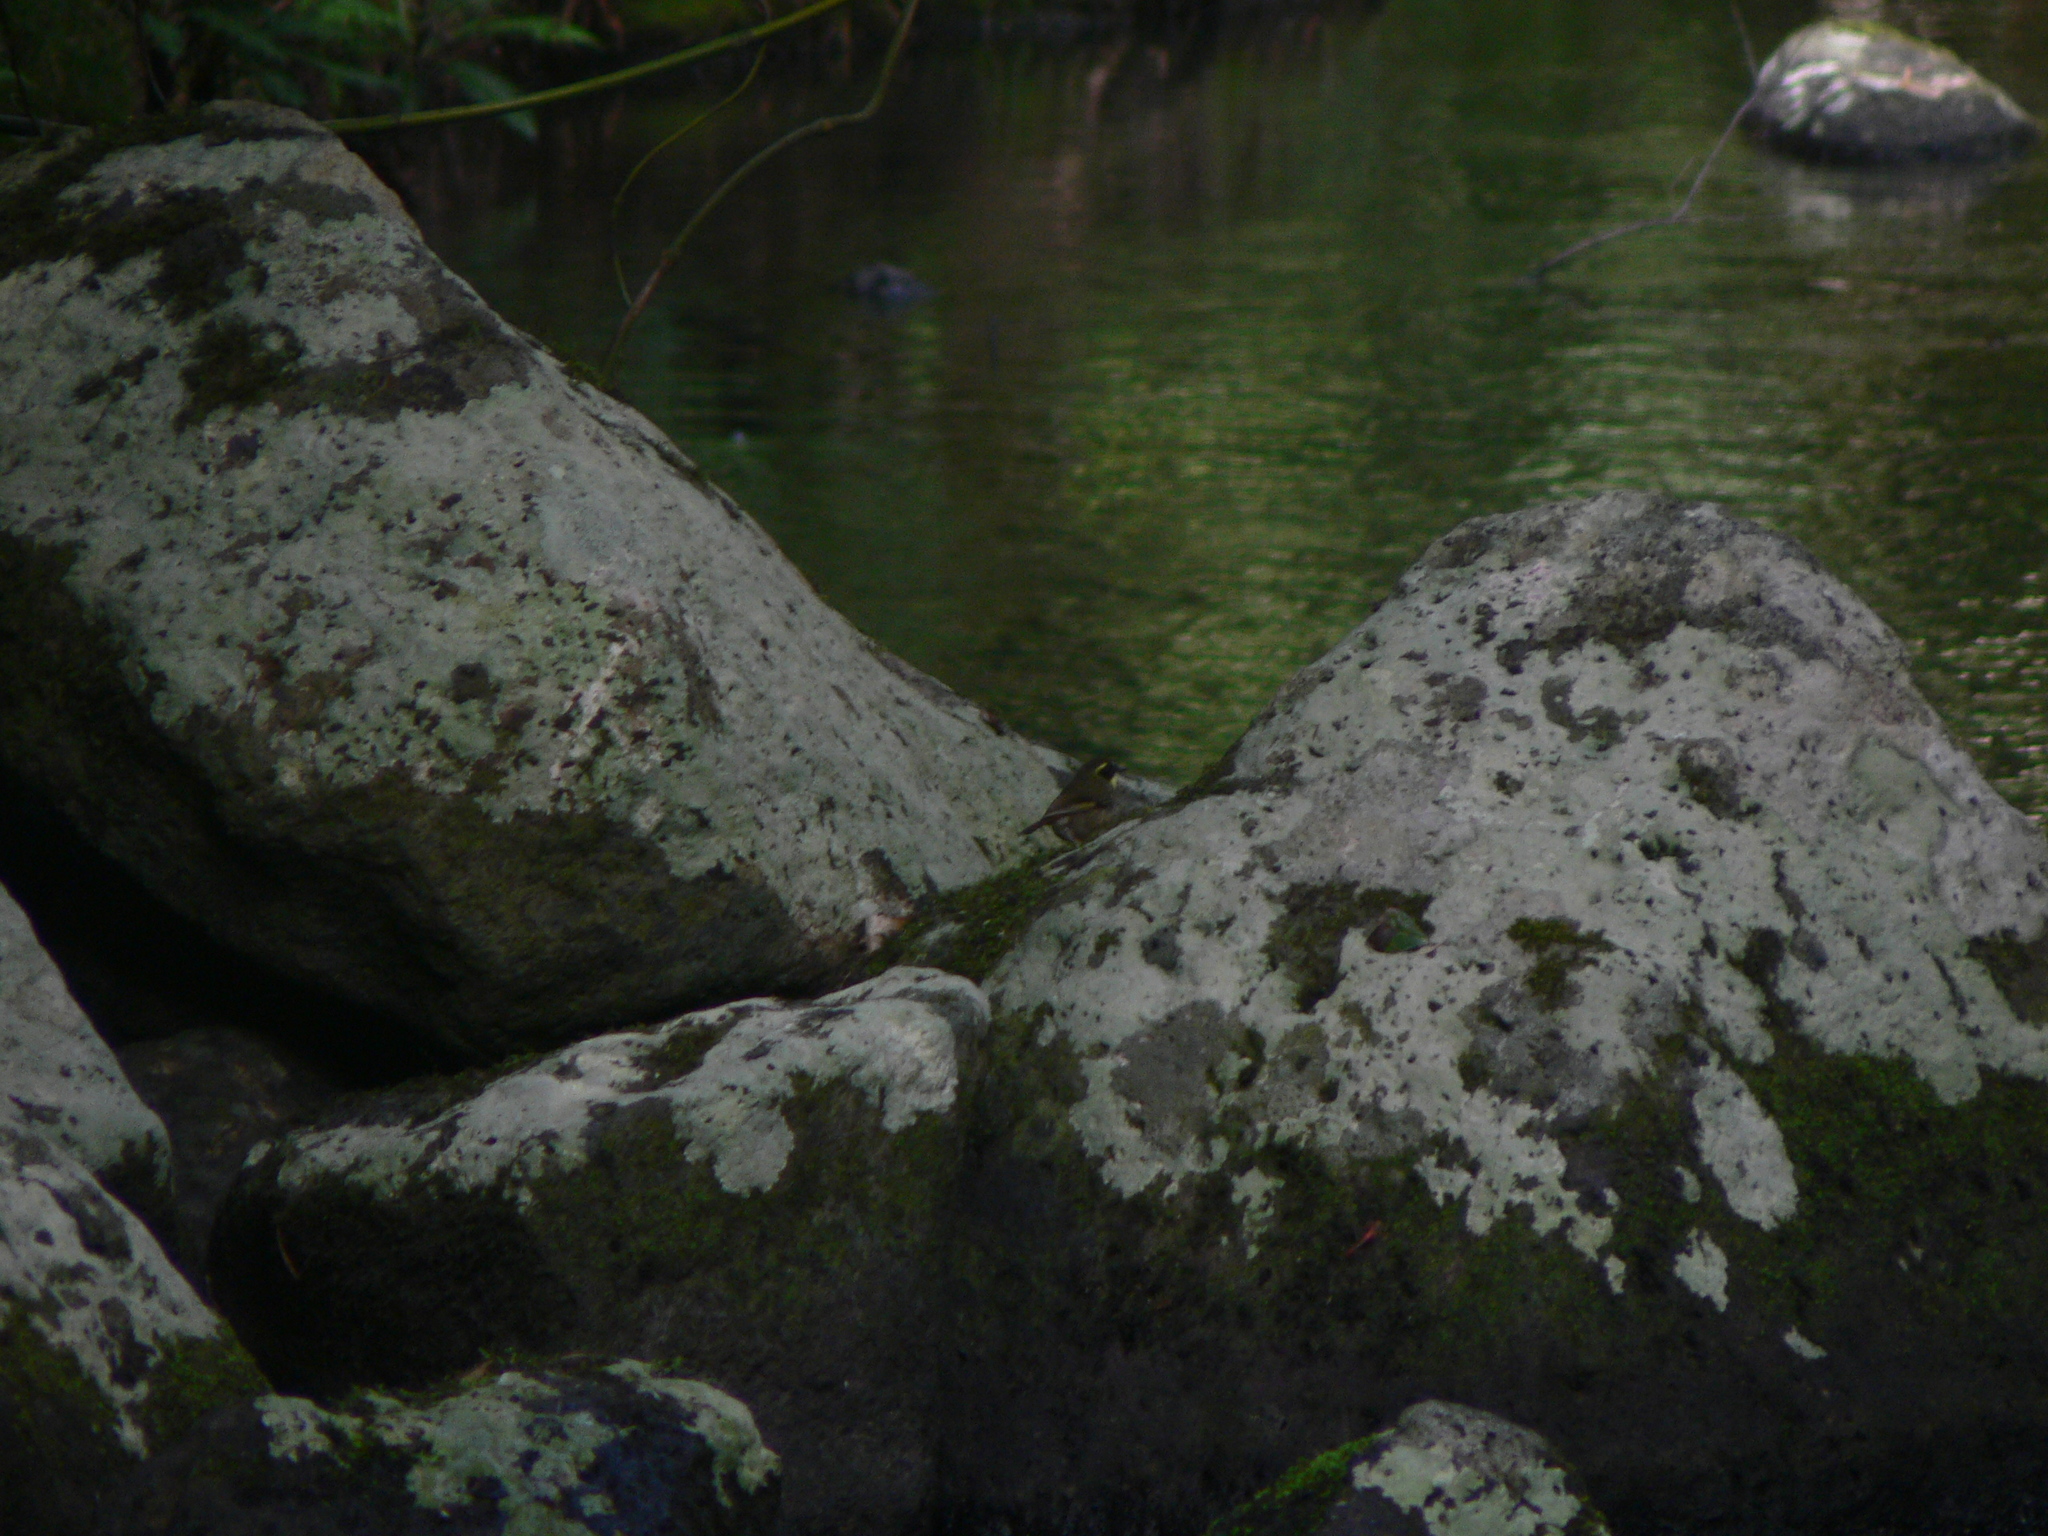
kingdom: Animalia
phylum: Chordata
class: Aves
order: Passeriformes
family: Acanthizidae
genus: Sericornis
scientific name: Sericornis citreogularis
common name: Yellow-throated scrubwren
